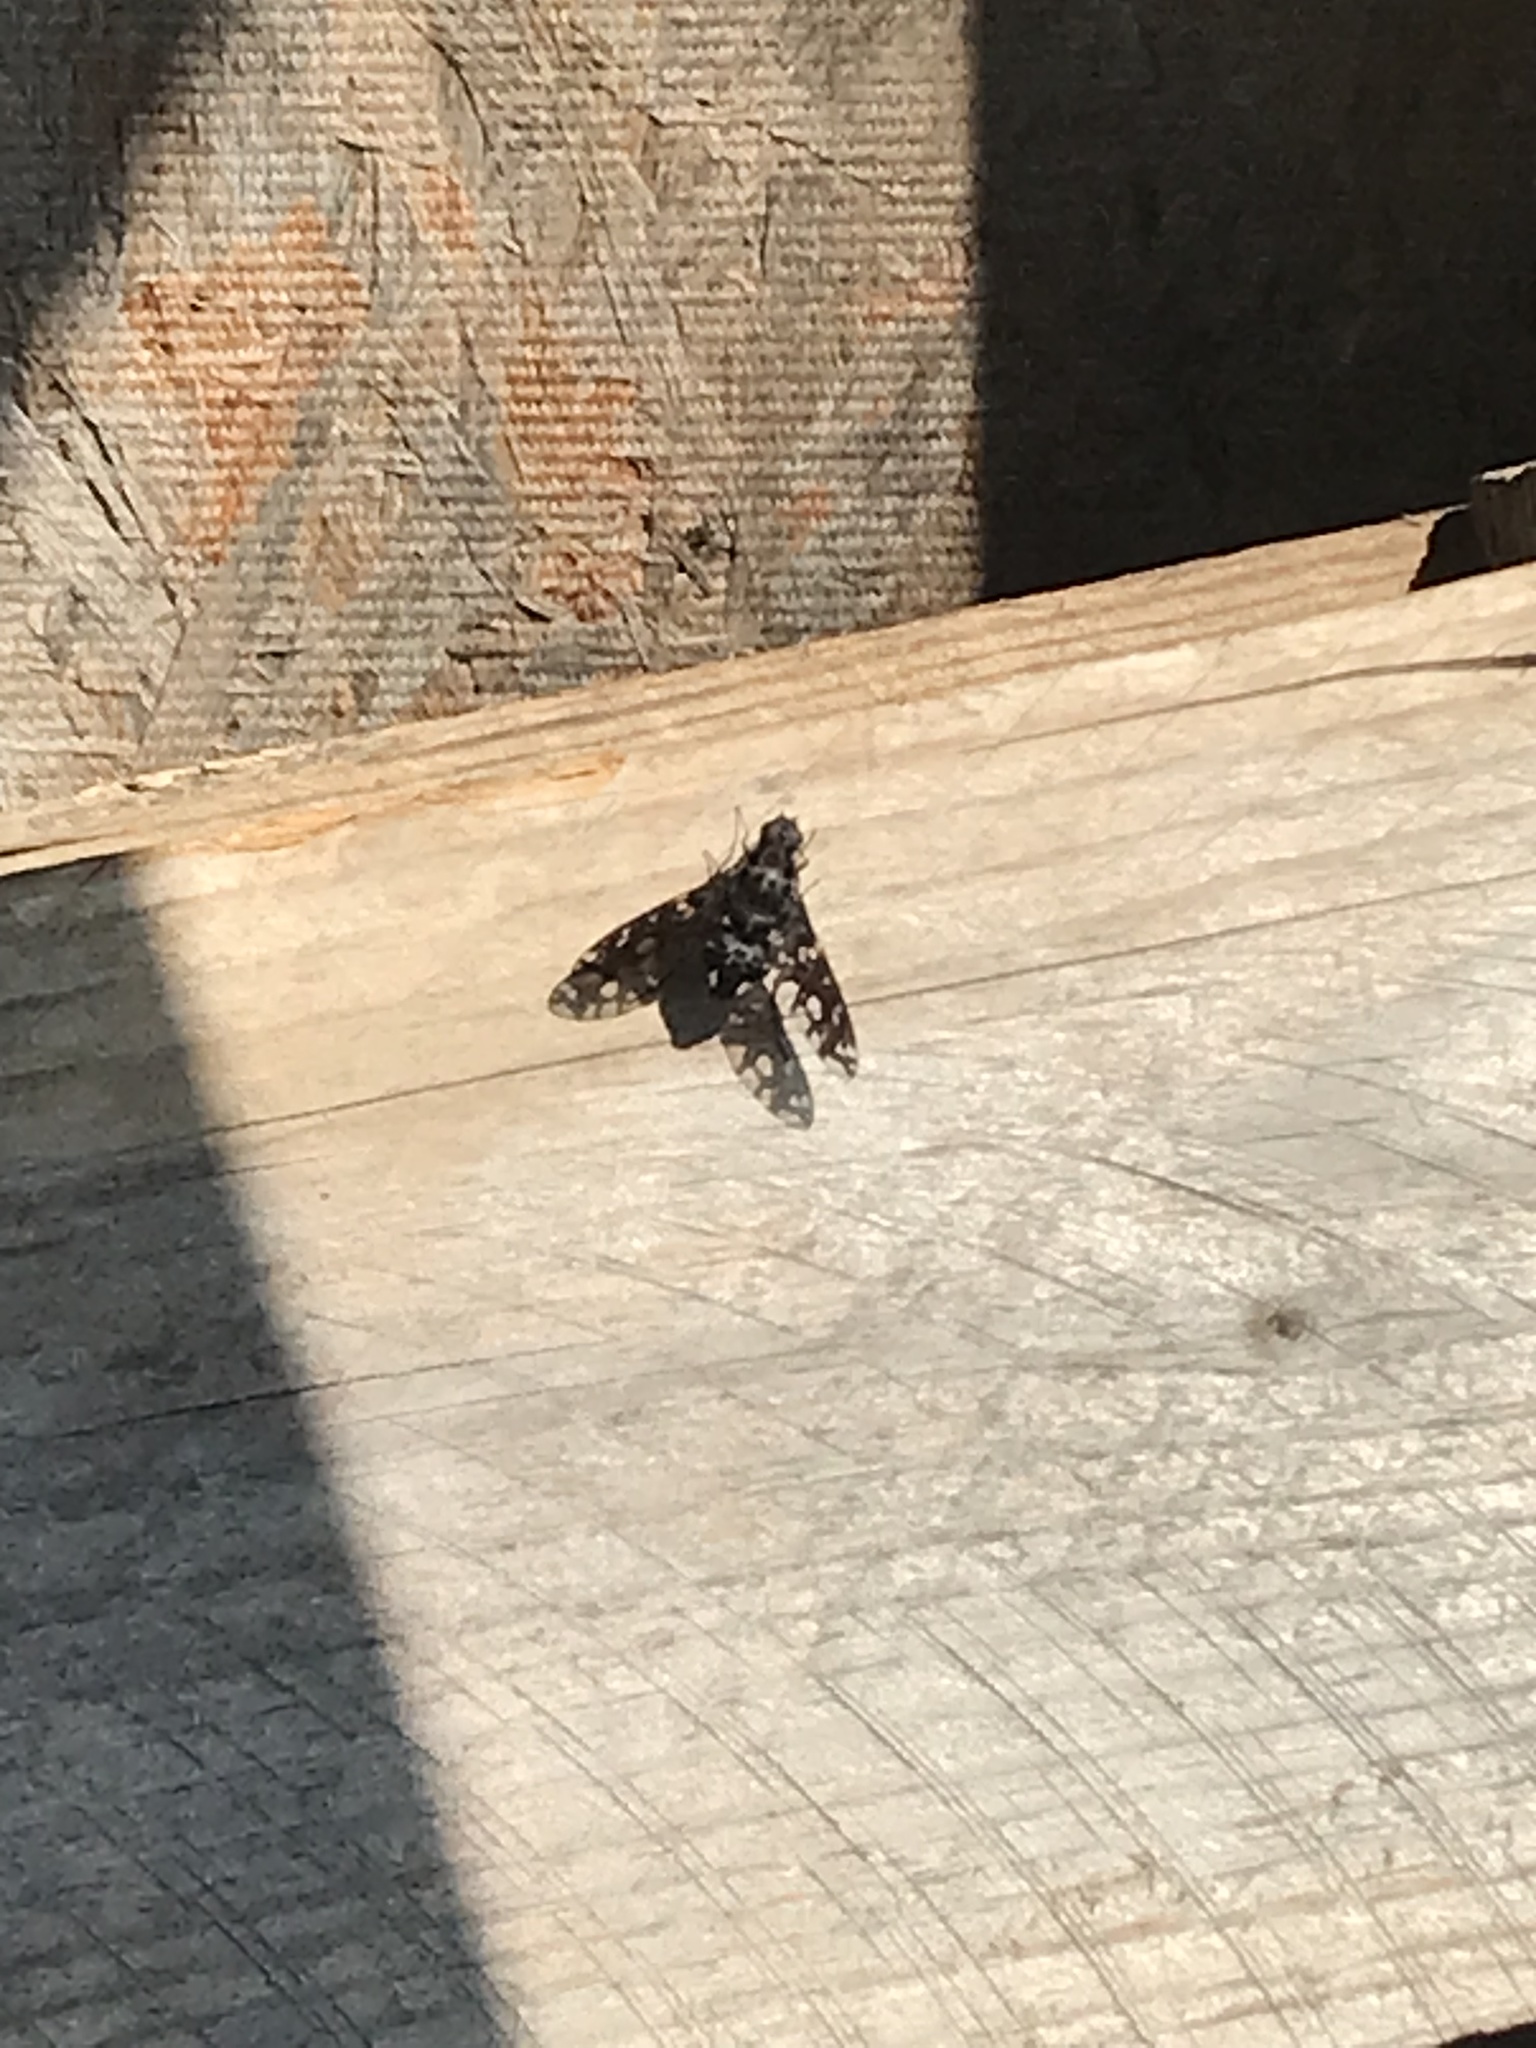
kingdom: Animalia
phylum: Arthropoda
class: Insecta
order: Diptera
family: Bombyliidae
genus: Xenox
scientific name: Xenox tigrinus
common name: Tiger bee fly
